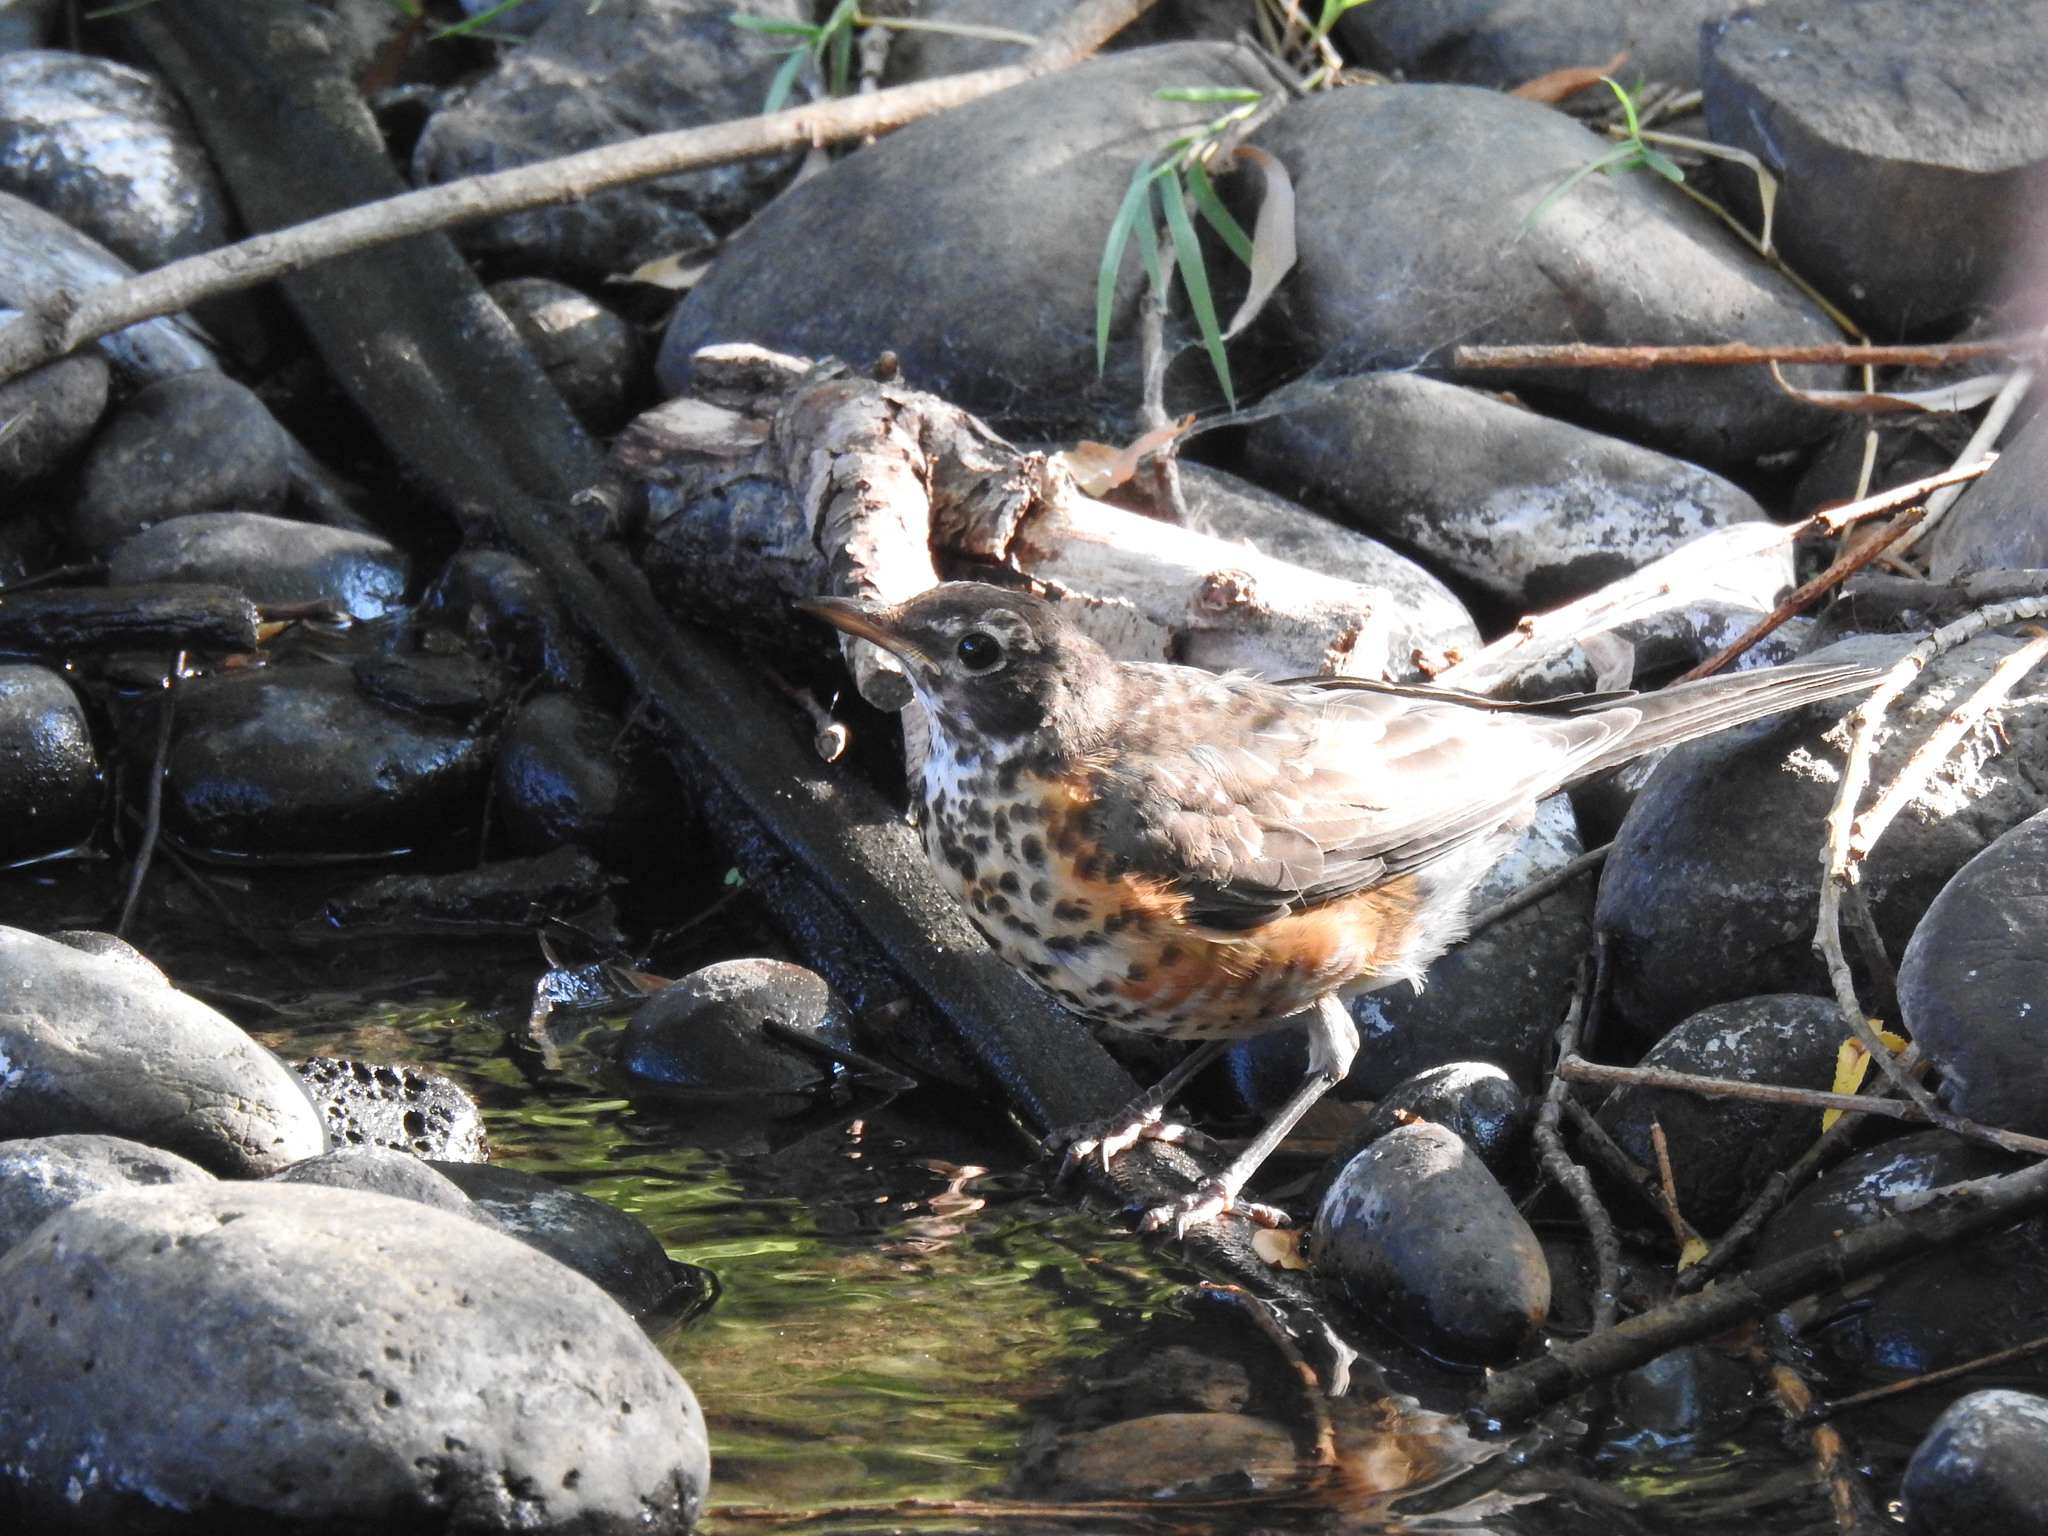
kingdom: Animalia
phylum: Chordata
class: Aves
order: Passeriformes
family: Turdidae
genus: Turdus
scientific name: Turdus migratorius
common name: American robin
